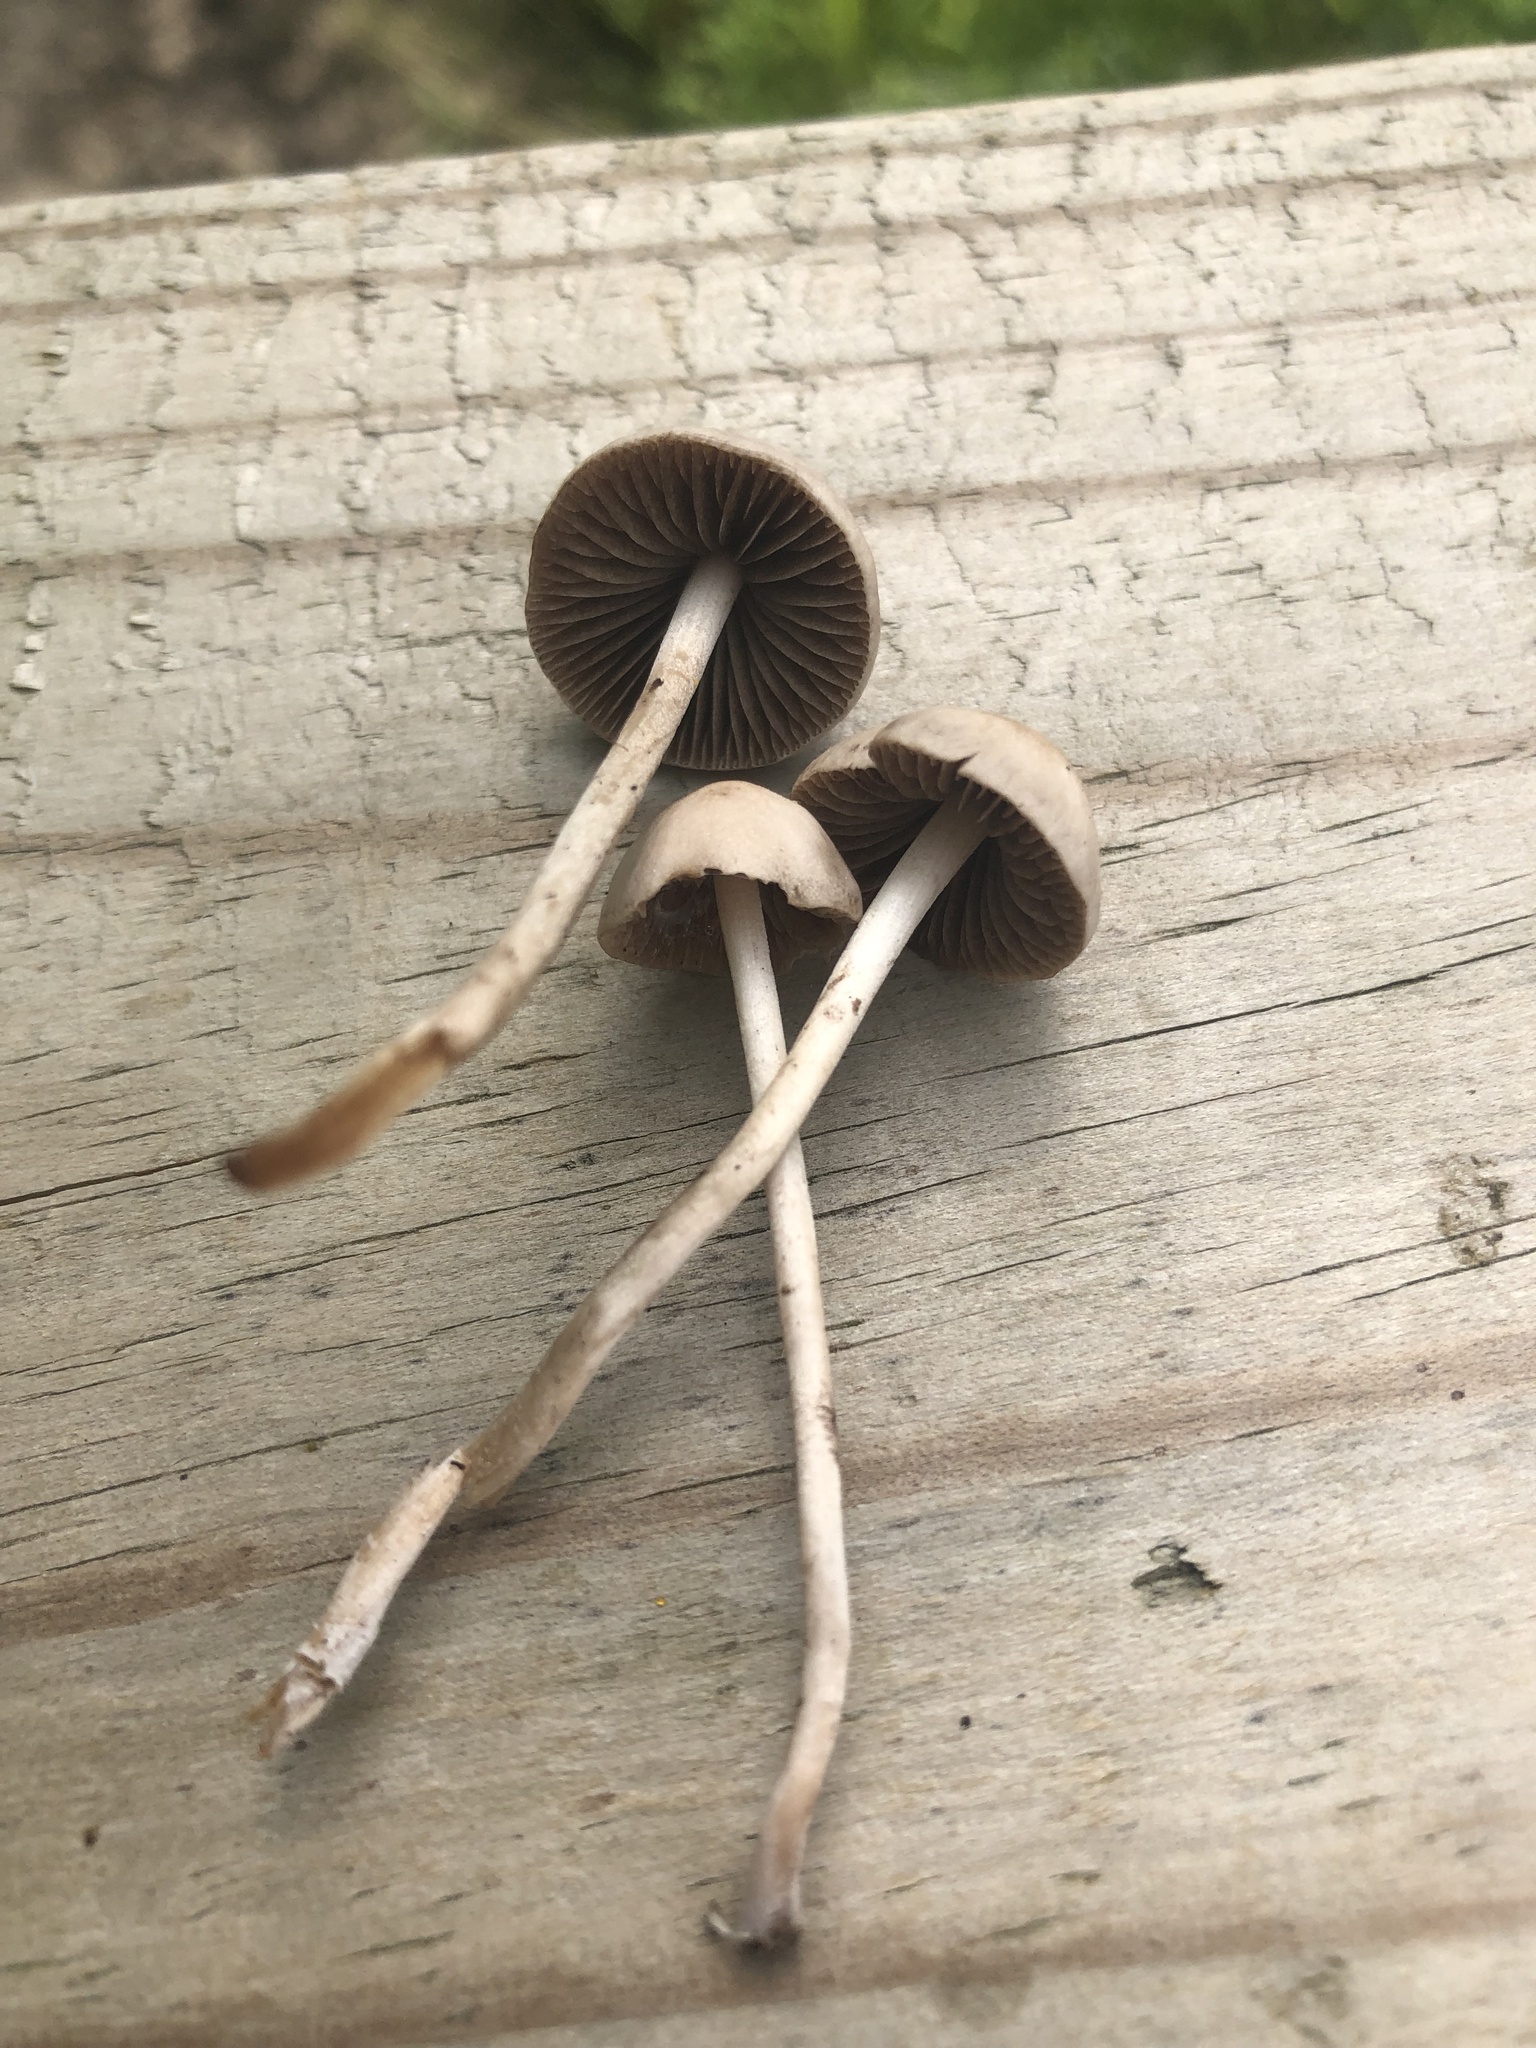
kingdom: Fungi
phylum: Basidiomycota
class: Agaricomycetes
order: Agaricales
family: Bolbitiaceae
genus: Panaeolus
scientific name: Panaeolus cinctulus
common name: Banded mottlegill
